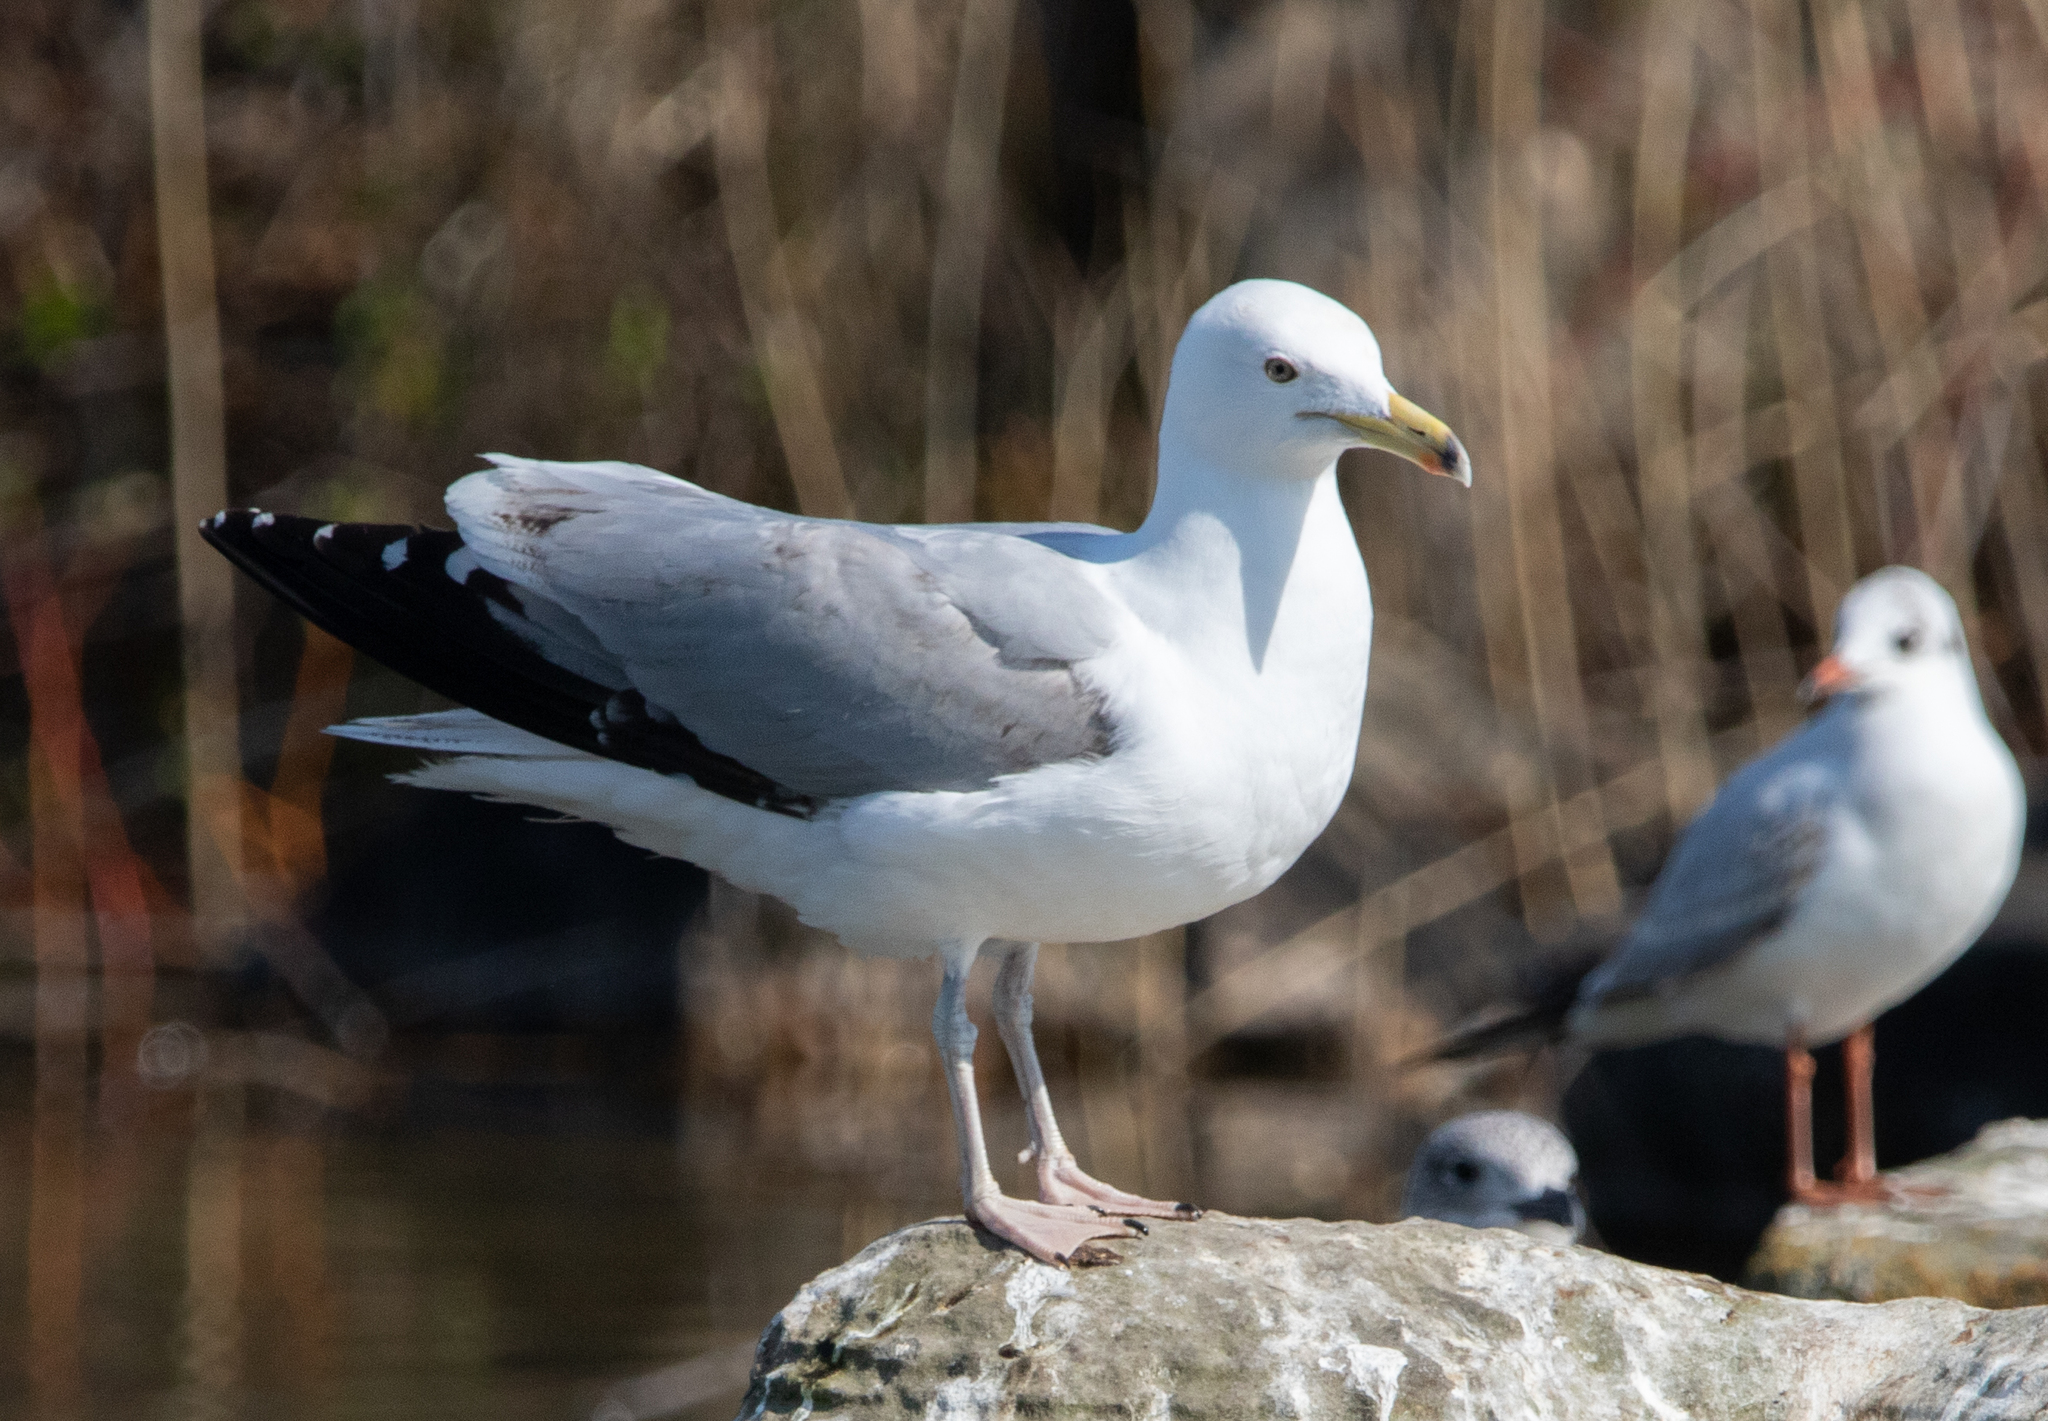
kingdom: Animalia
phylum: Chordata
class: Aves
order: Charadriiformes
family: Laridae
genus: Larus
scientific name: Larus argentatus
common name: Herring gull
